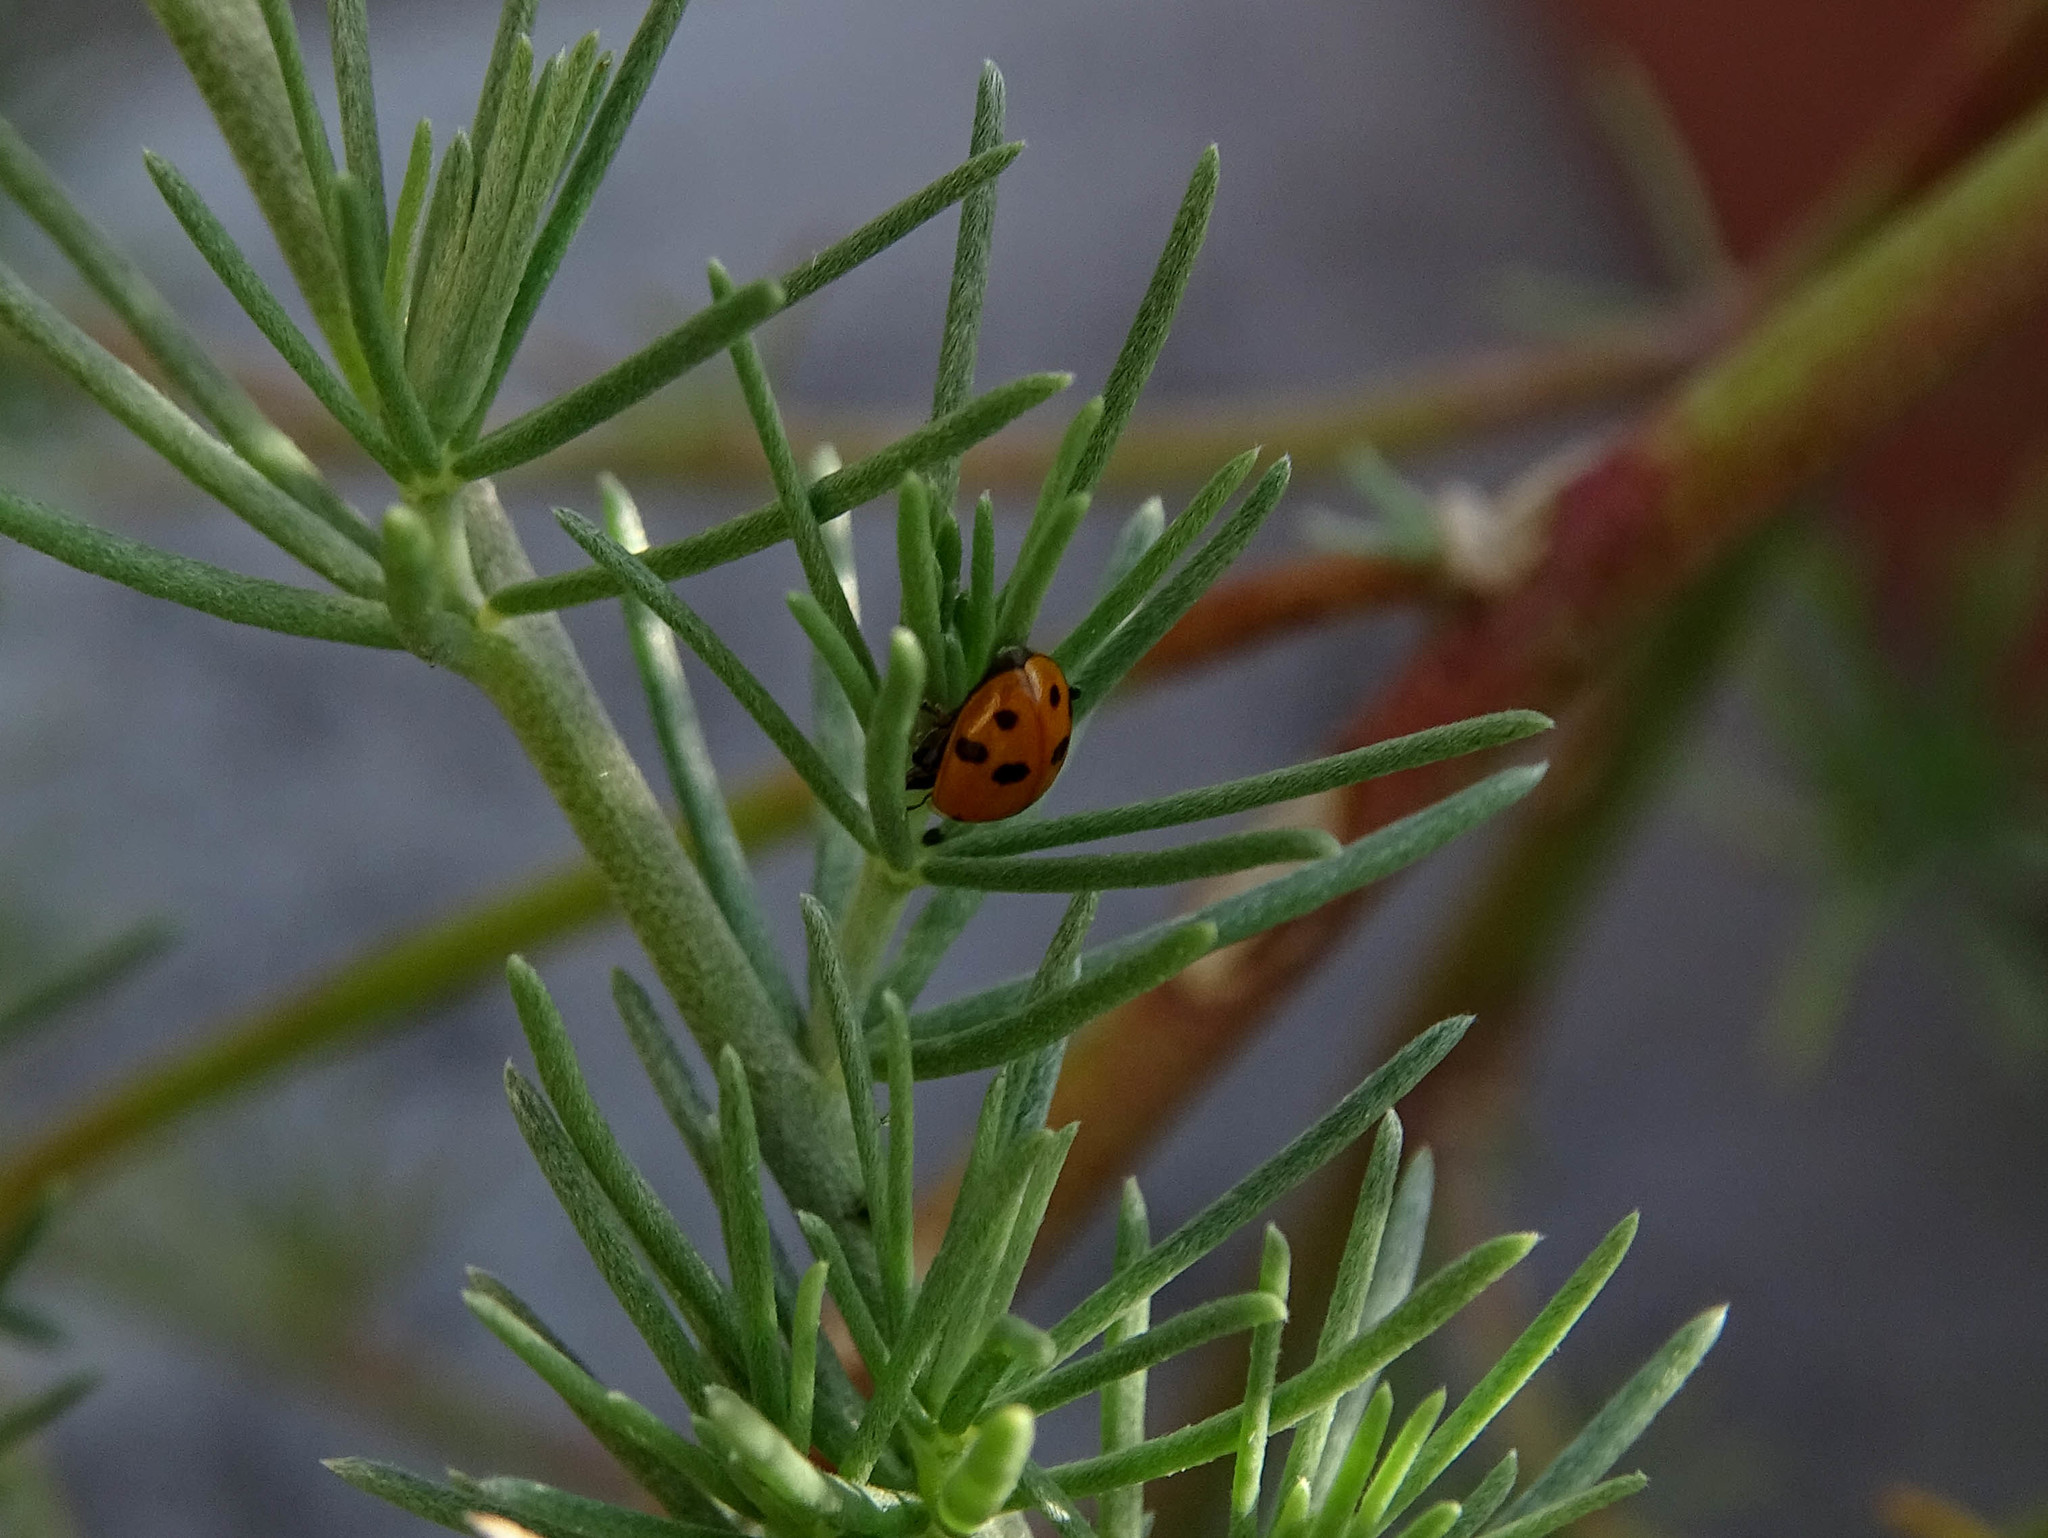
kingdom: Animalia
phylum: Arthropoda
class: Insecta
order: Coleoptera
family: Coccinellidae
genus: Hippodamia
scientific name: Hippodamia variegata
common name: Ladybird beetle
